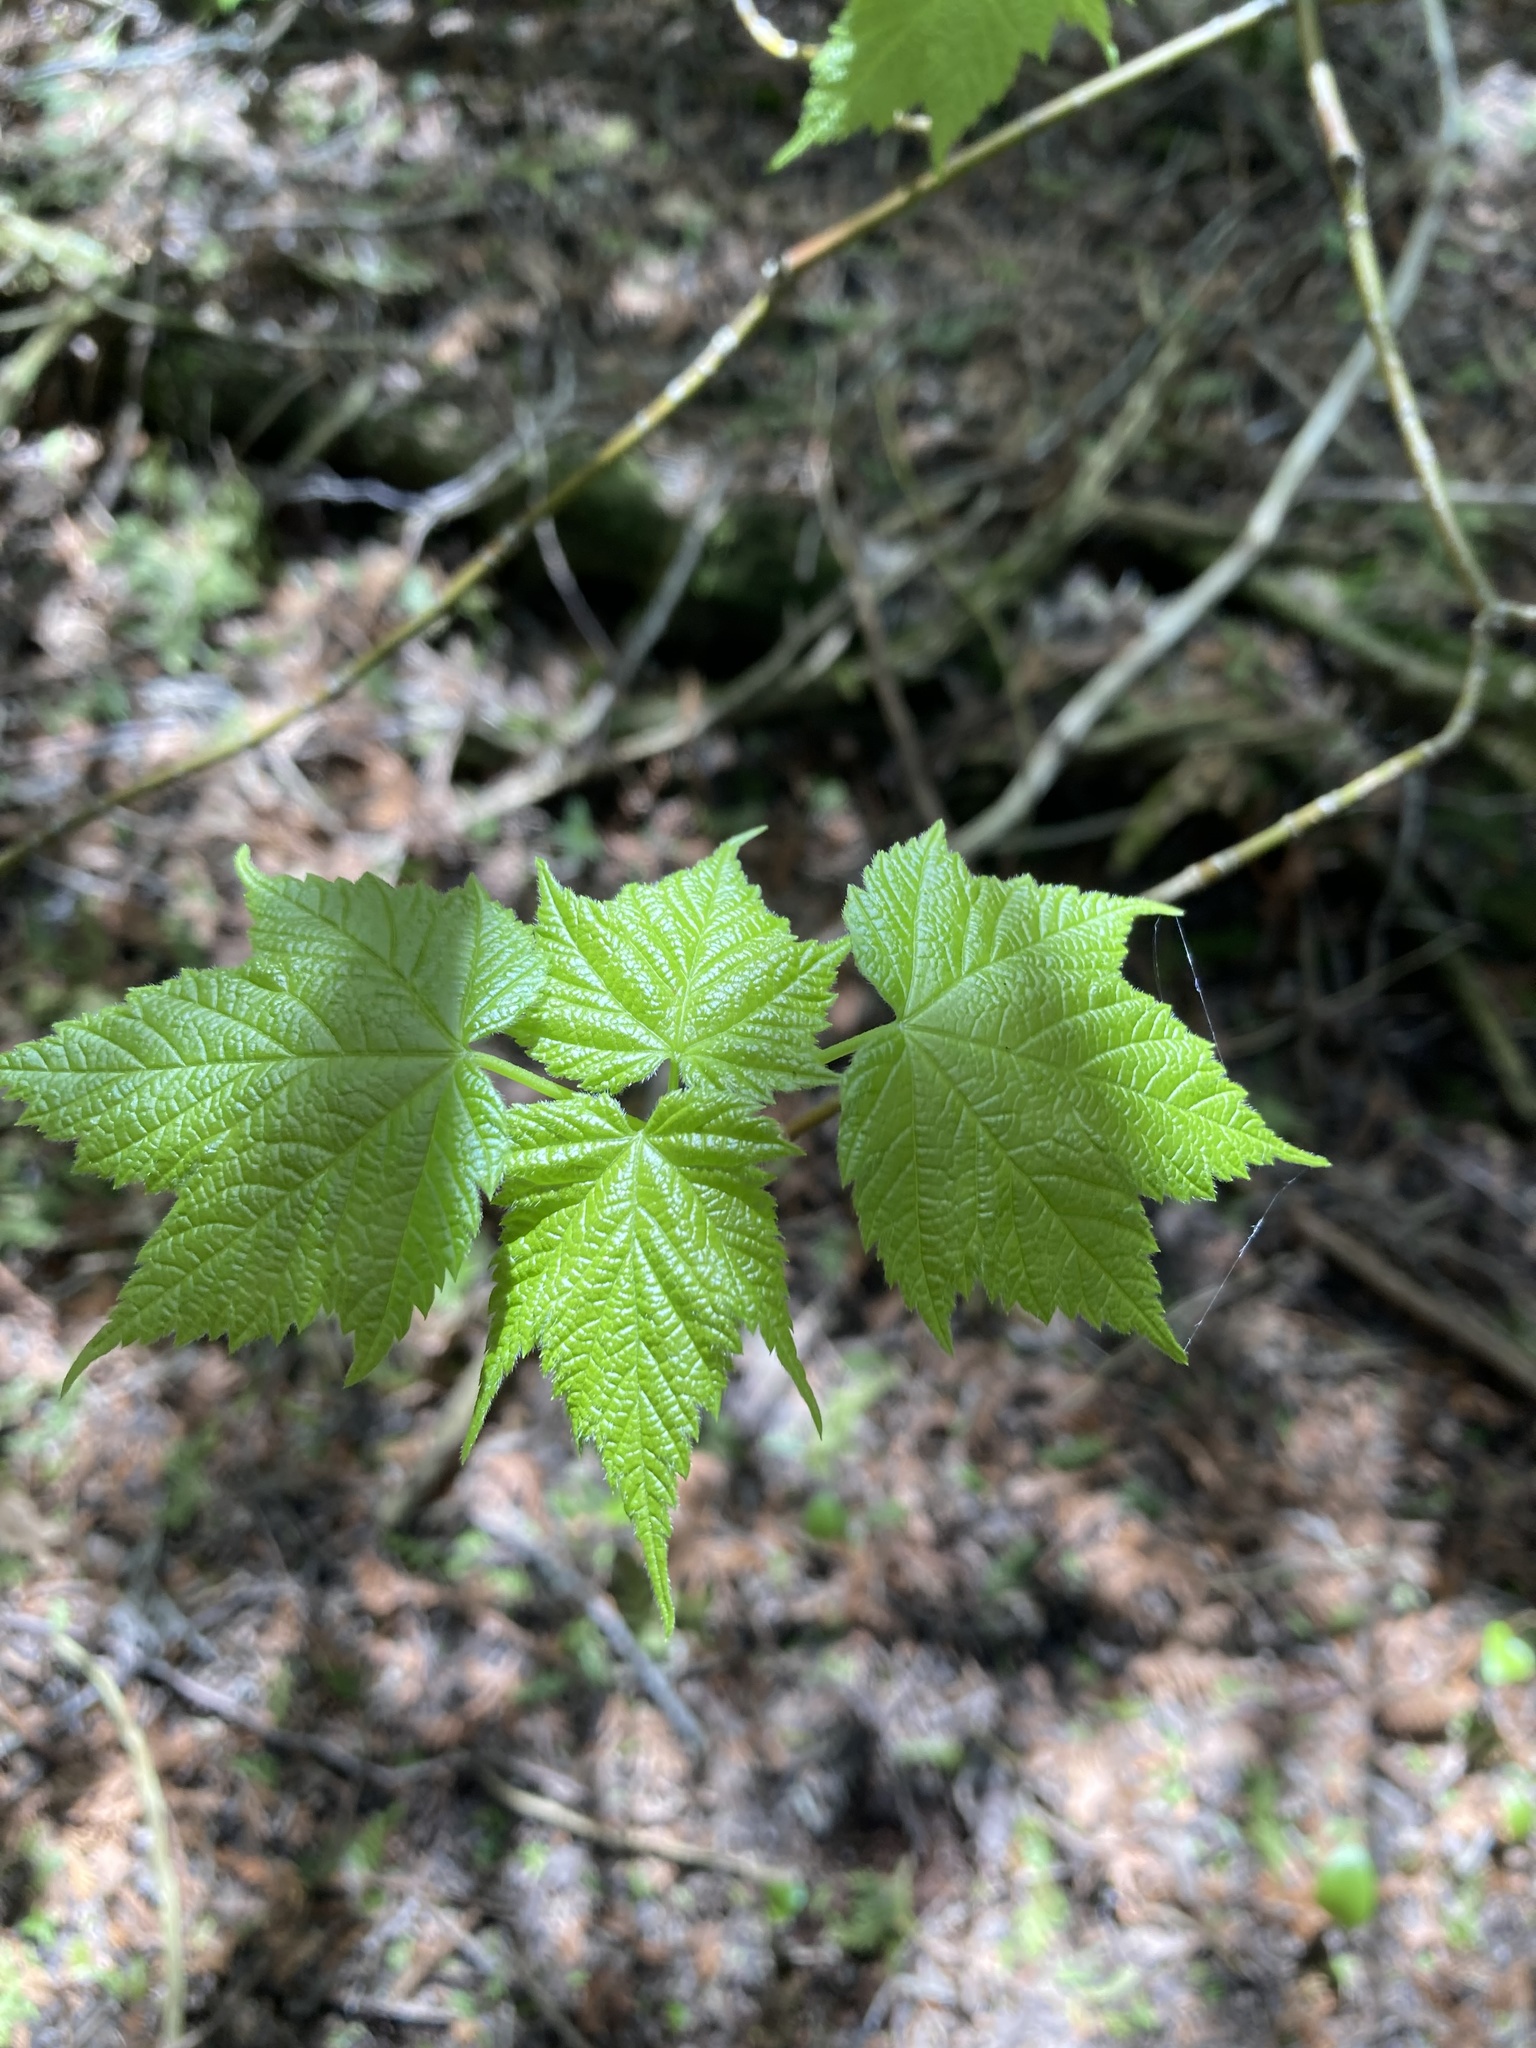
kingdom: Plantae
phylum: Tracheophyta
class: Magnoliopsida
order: Sapindales
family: Sapindaceae
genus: Acer
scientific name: Acer spicatum
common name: Mountain maple
